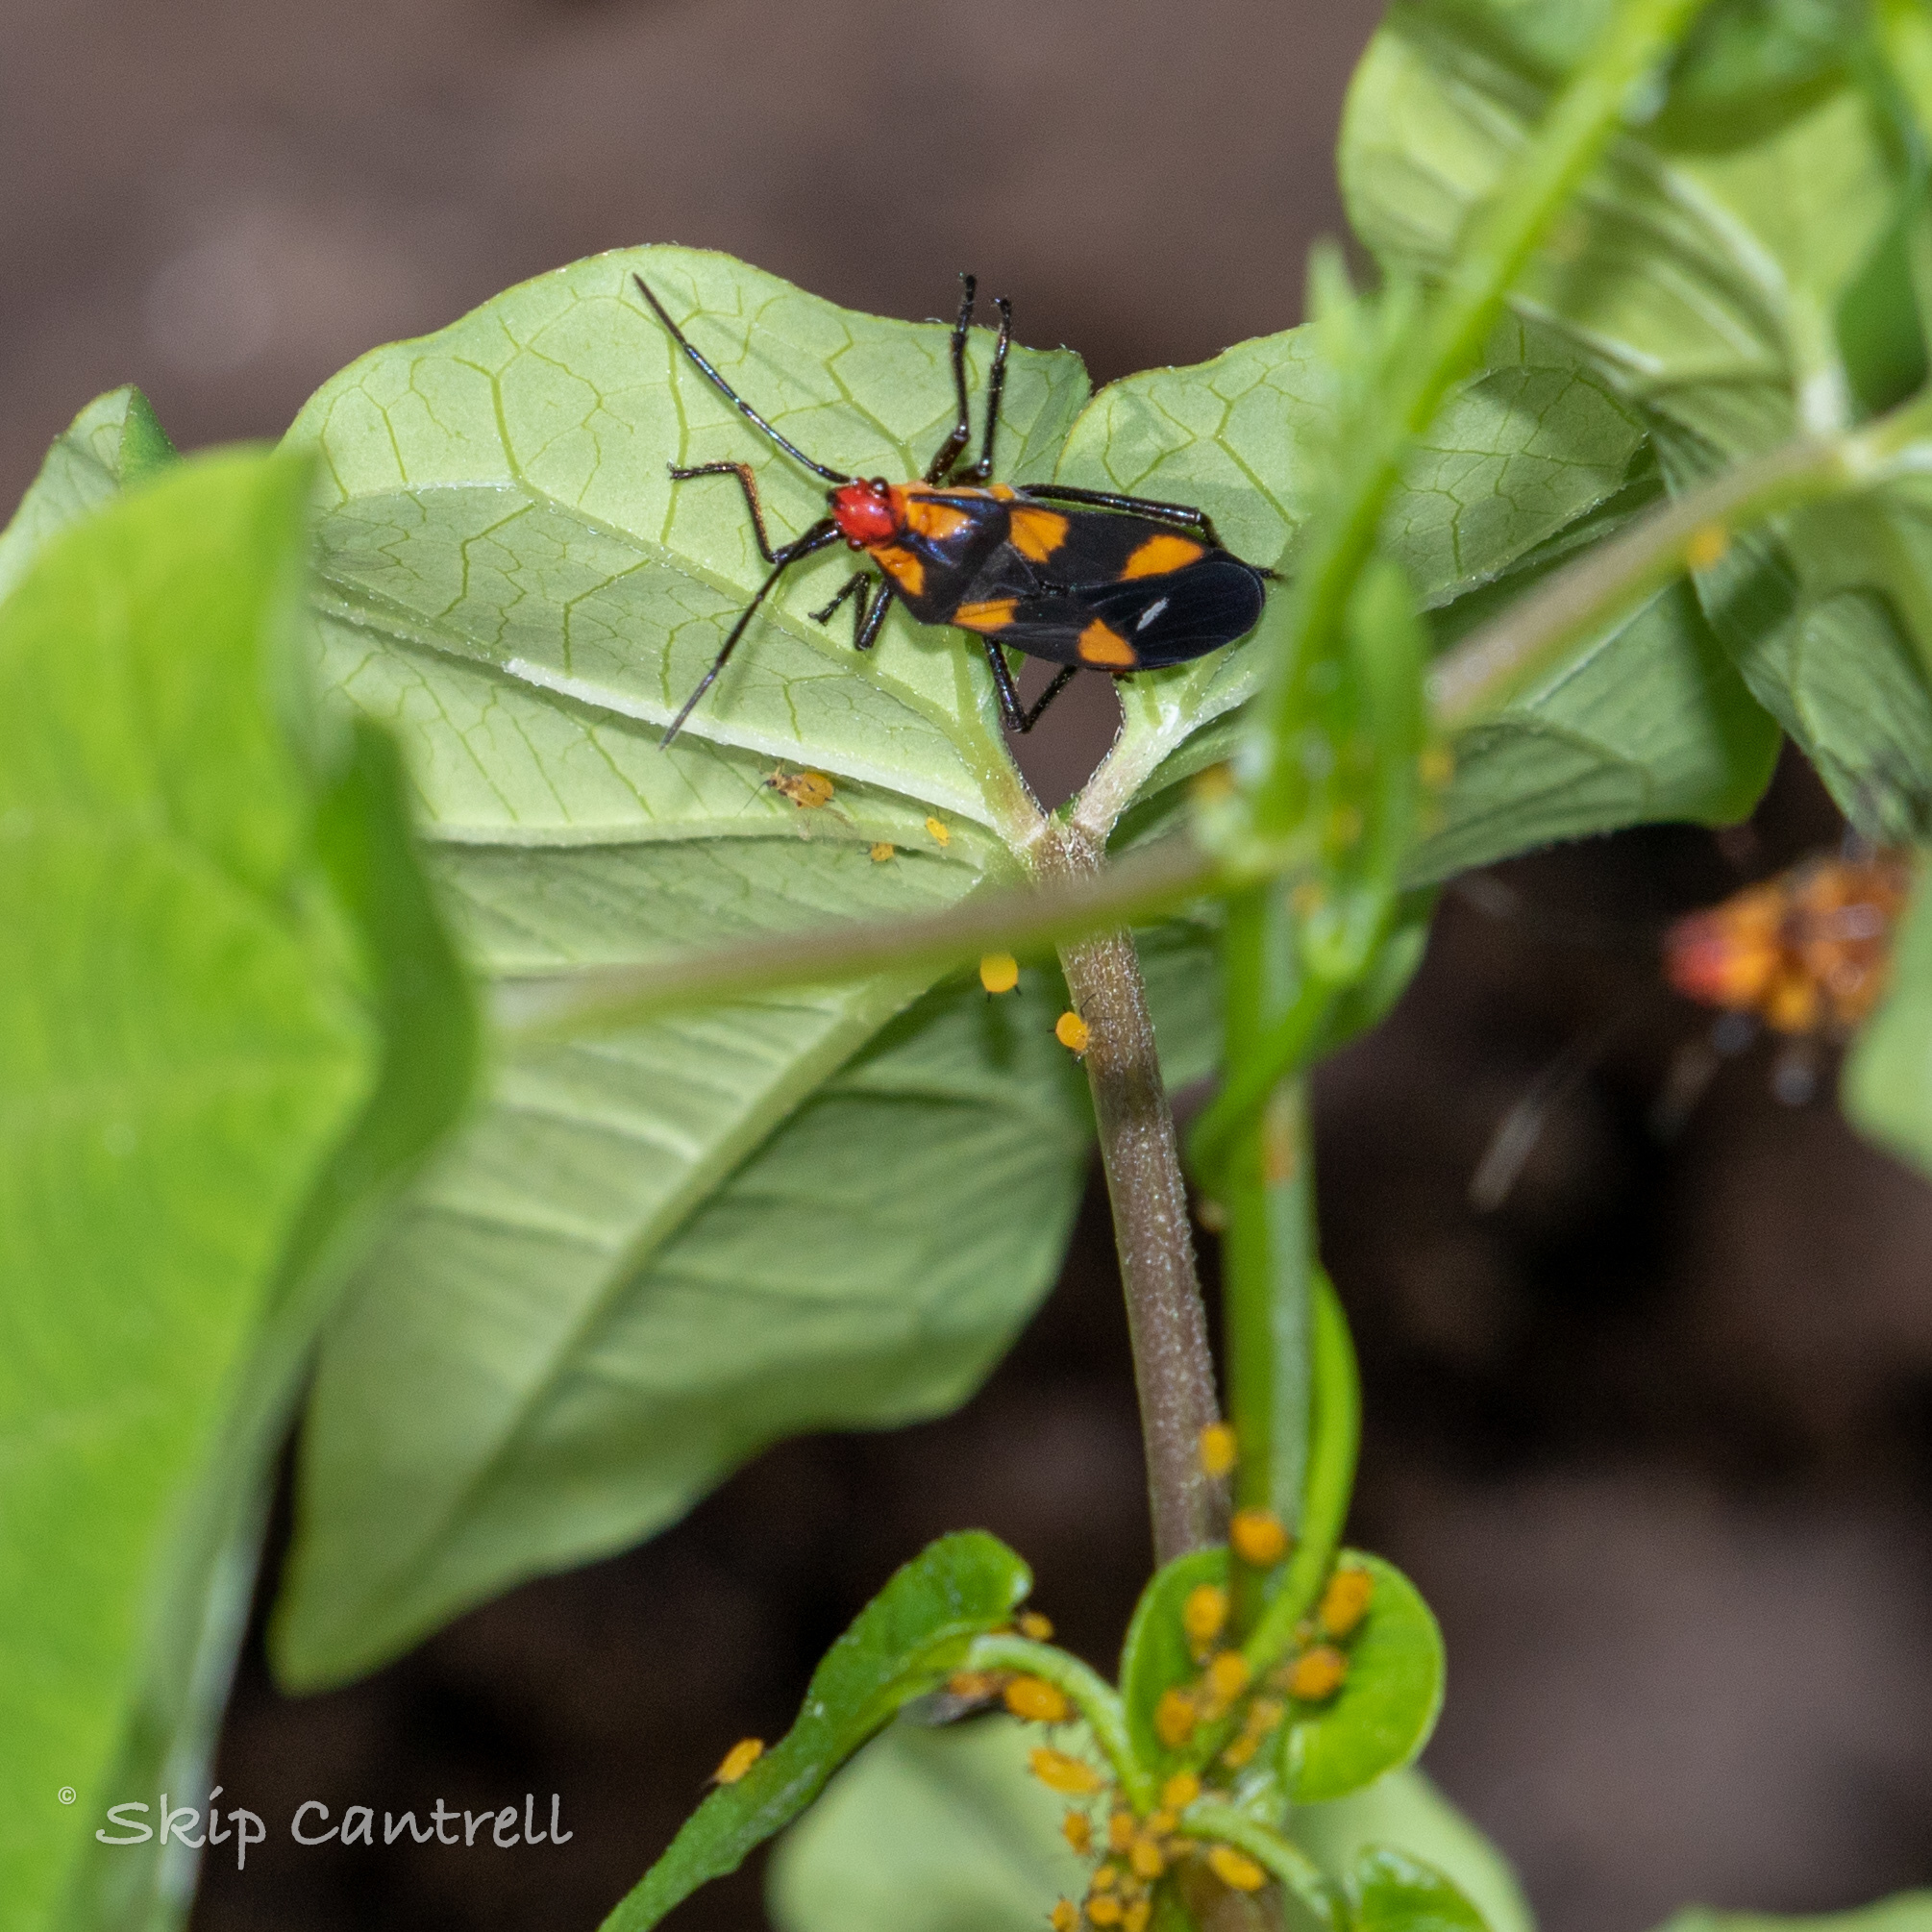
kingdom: Animalia
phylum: Arthropoda
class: Insecta
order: Hemiptera
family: Lygaeidae
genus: Oncopeltus
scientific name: Oncopeltus sexmaculatus
